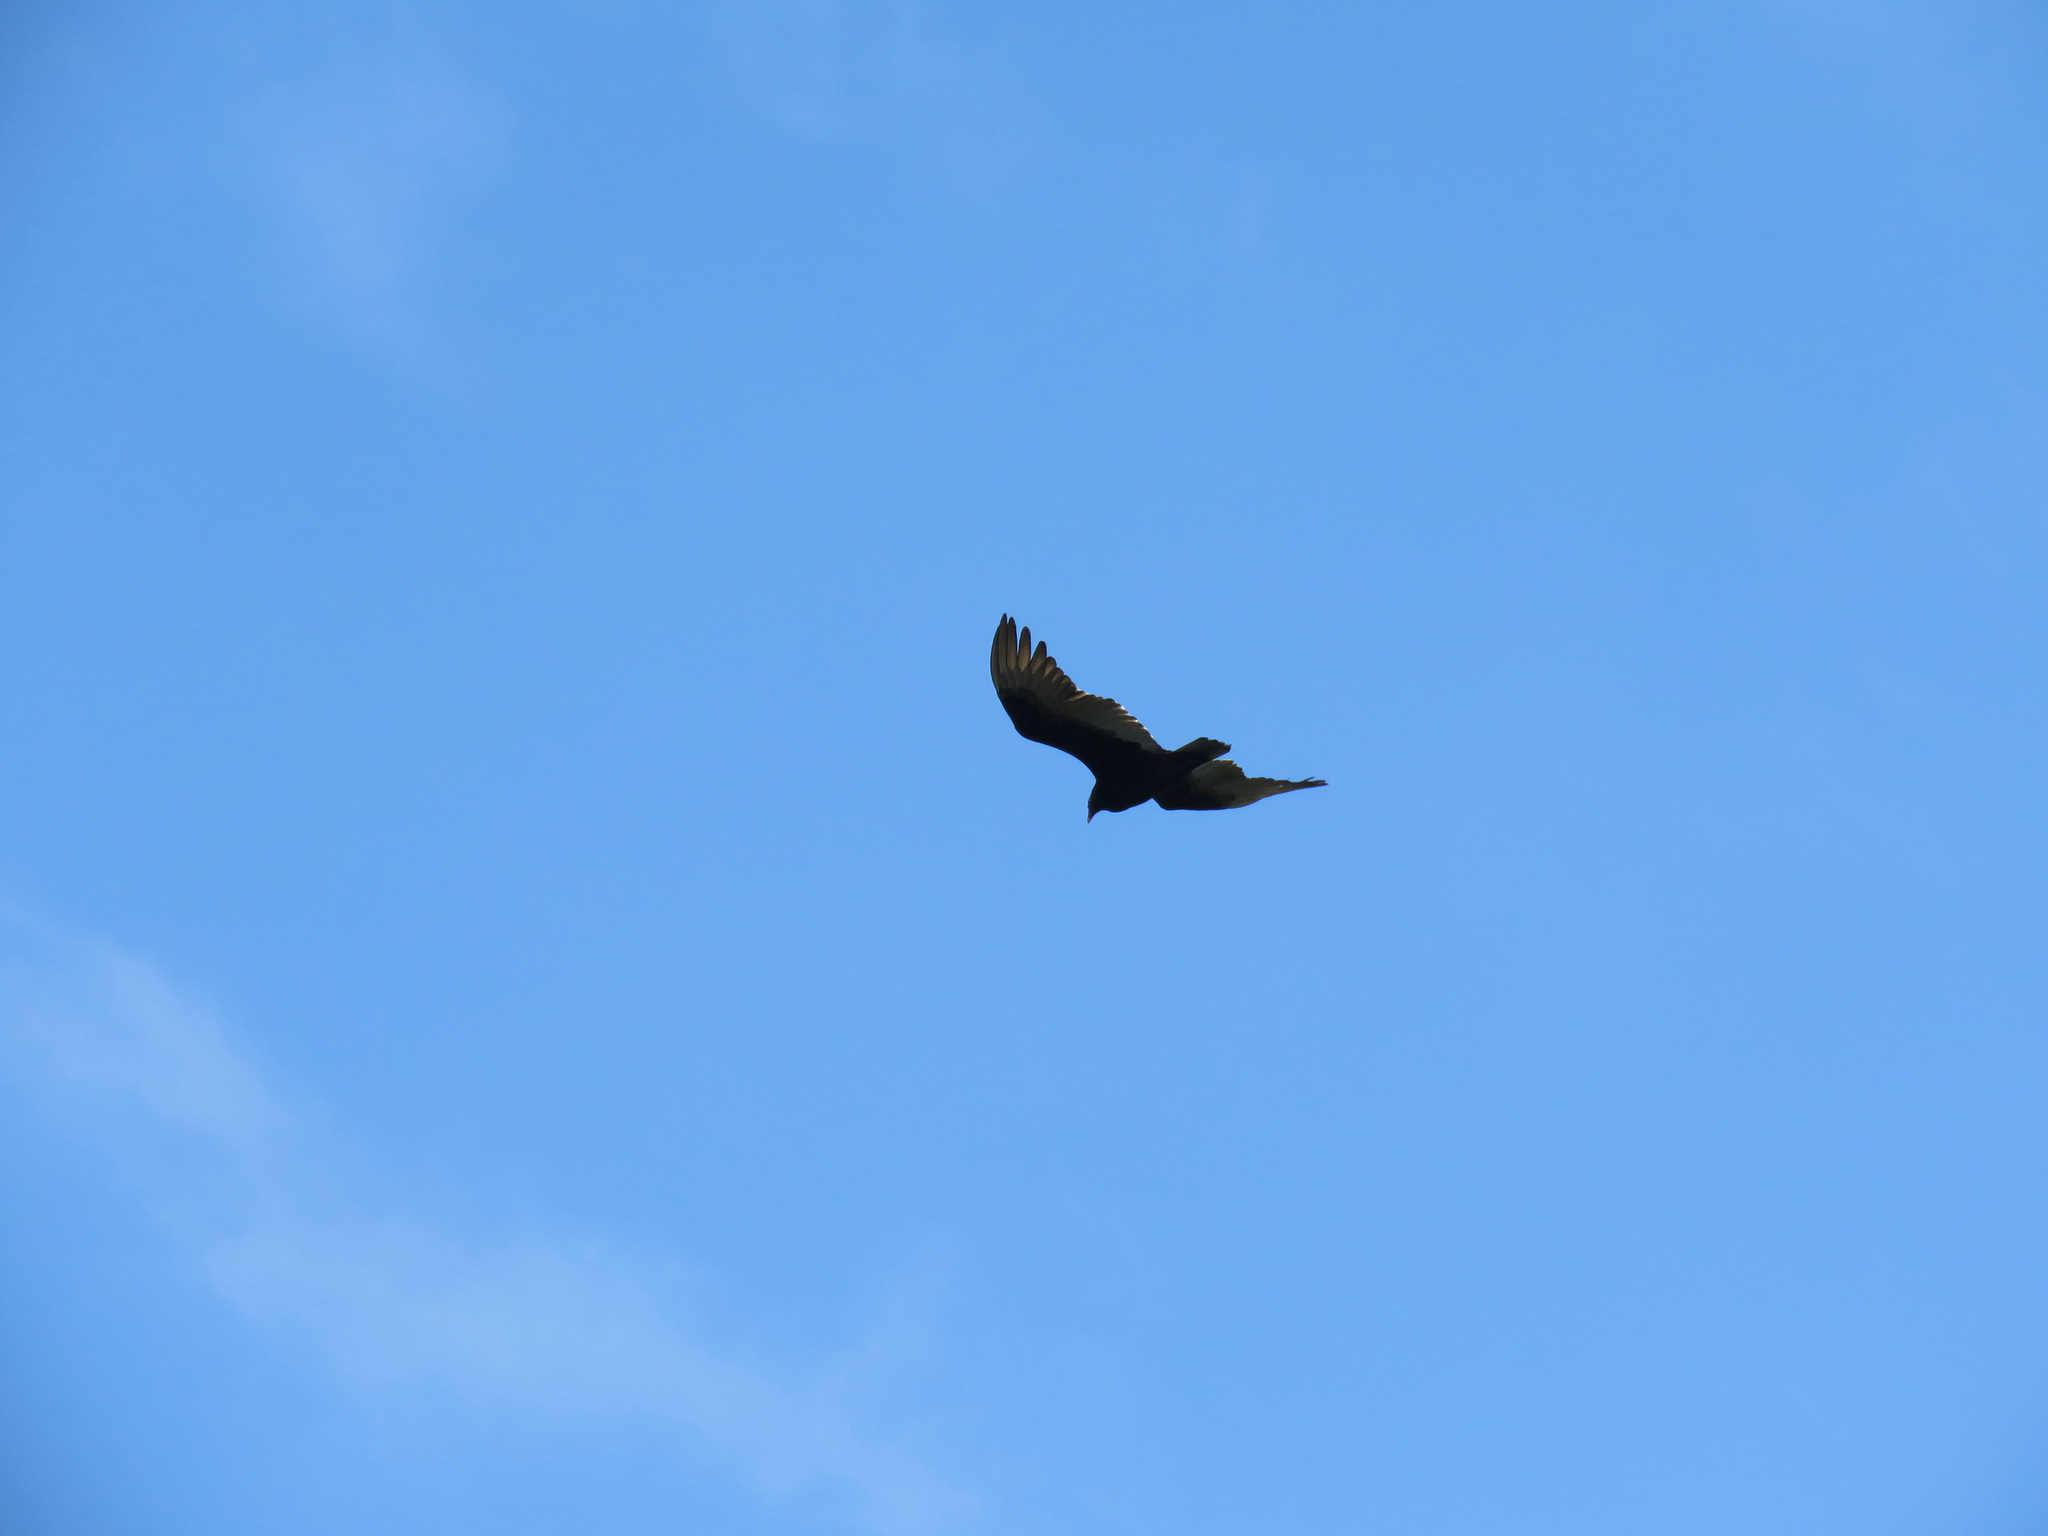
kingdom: Animalia
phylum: Chordata
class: Aves
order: Accipitriformes
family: Cathartidae
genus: Cathartes
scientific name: Cathartes aura
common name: Turkey vulture
